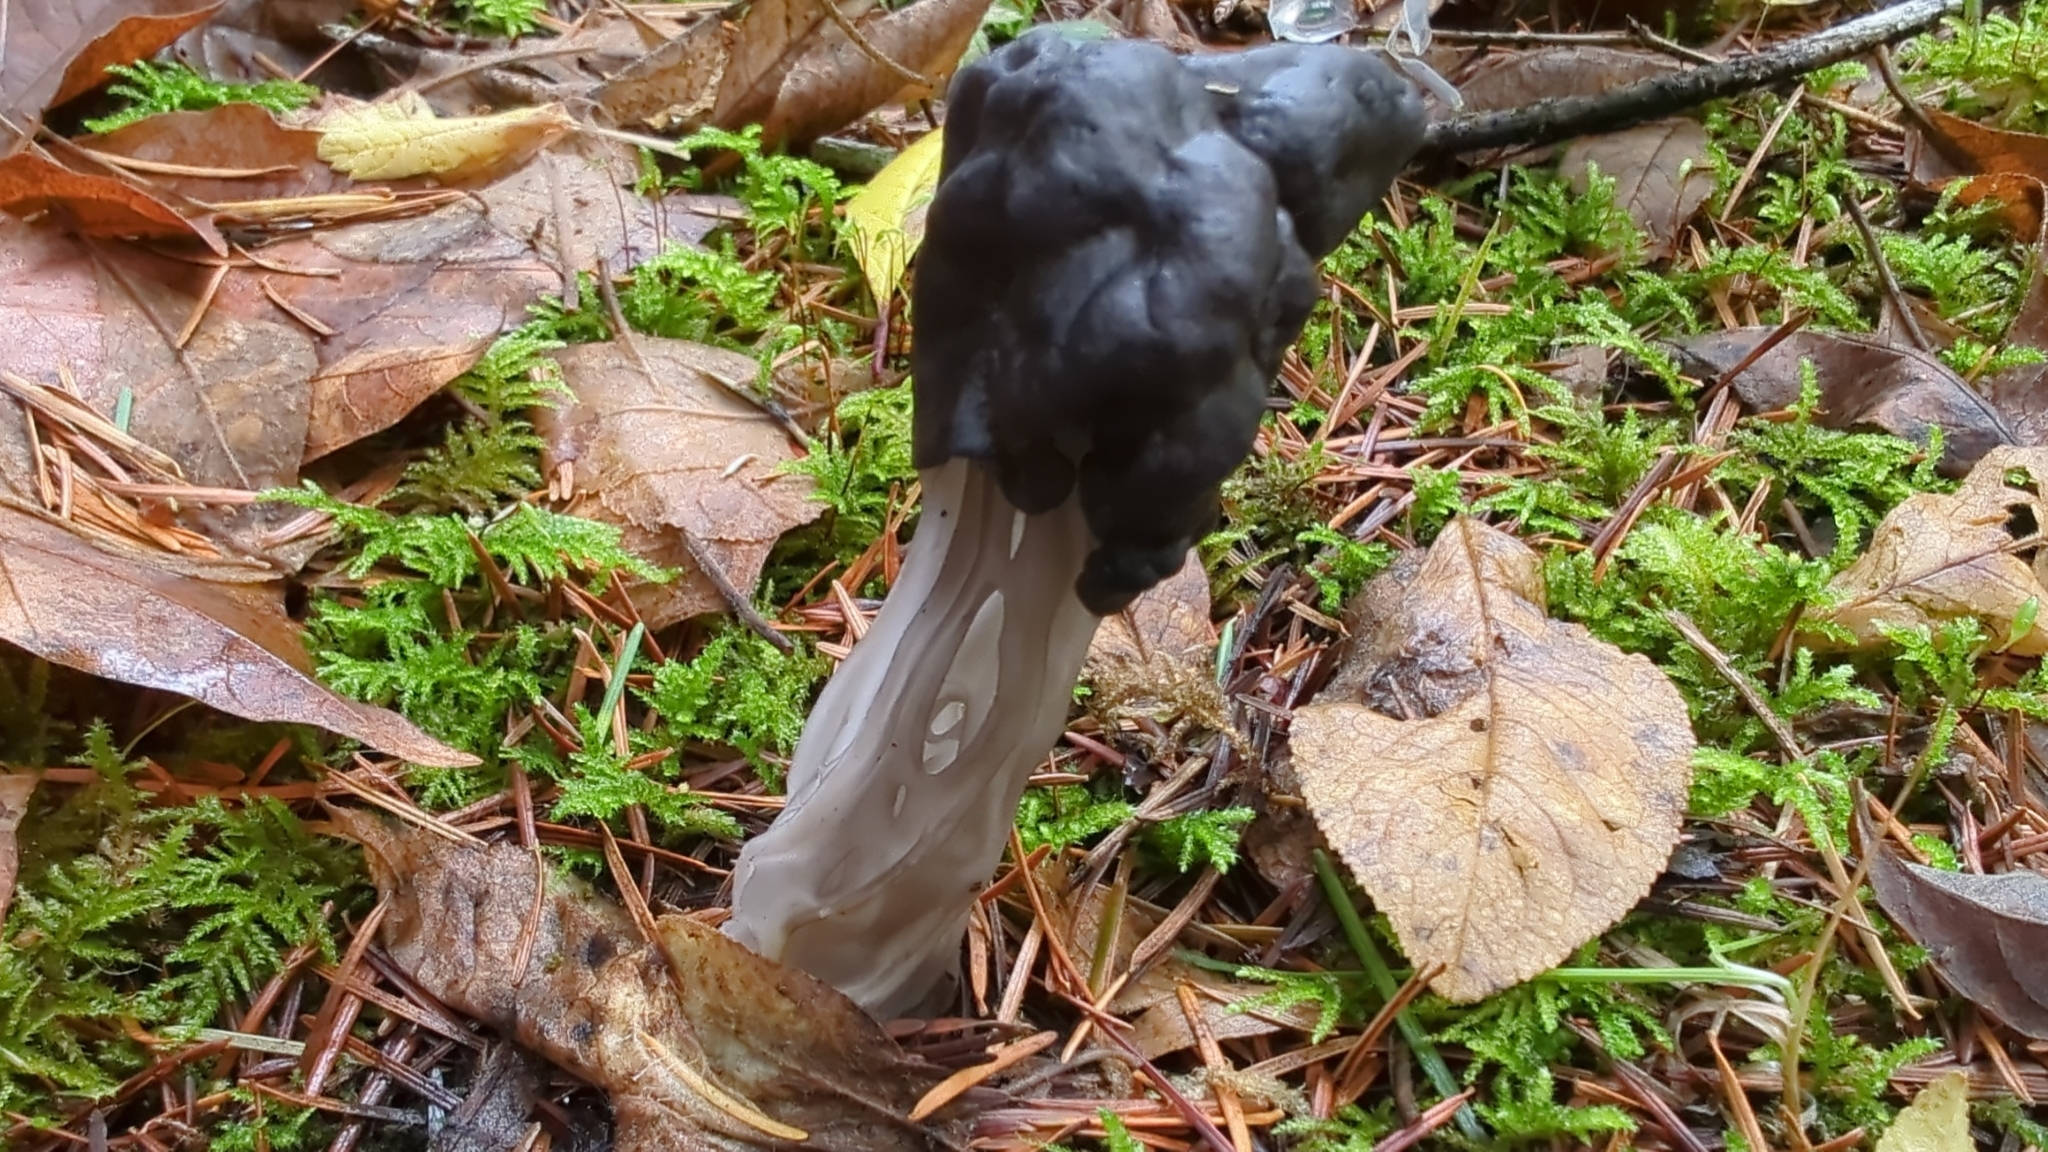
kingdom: Fungi
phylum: Ascomycota
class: Pezizomycetes
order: Pezizales
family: Helvellaceae
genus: Helvella
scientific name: Helvella vespertina
